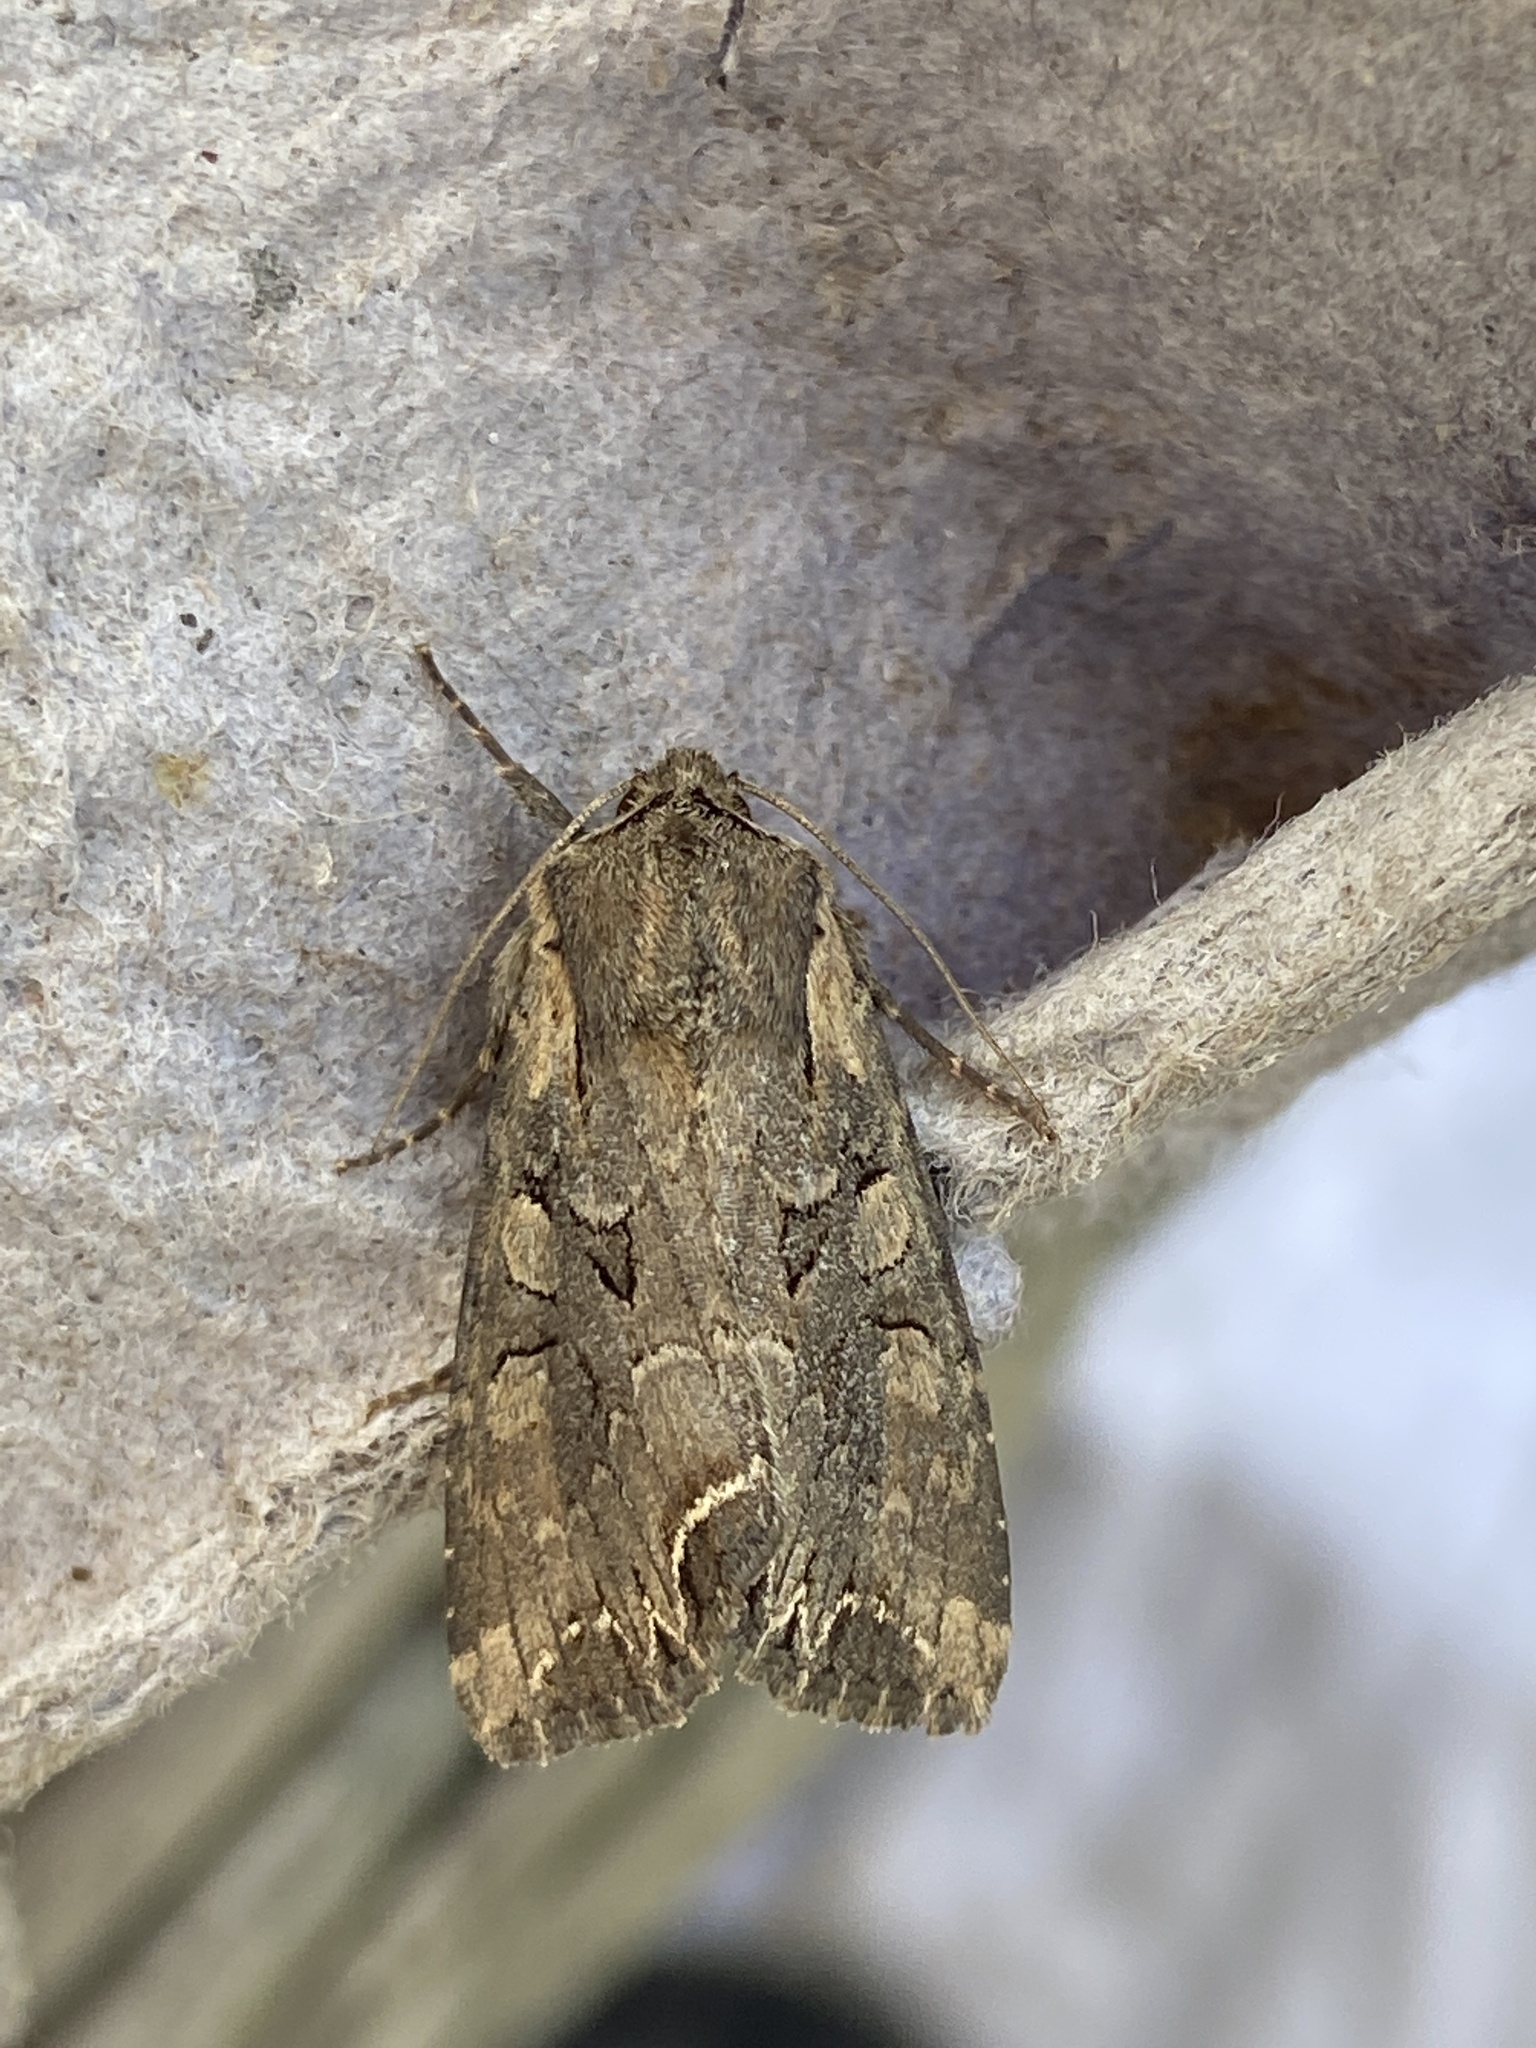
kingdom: Animalia
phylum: Arthropoda
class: Insecta
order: Lepidoptera
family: Noctuidae
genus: Lacanobia
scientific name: Lacanobia suasa
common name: Dog's tooth
